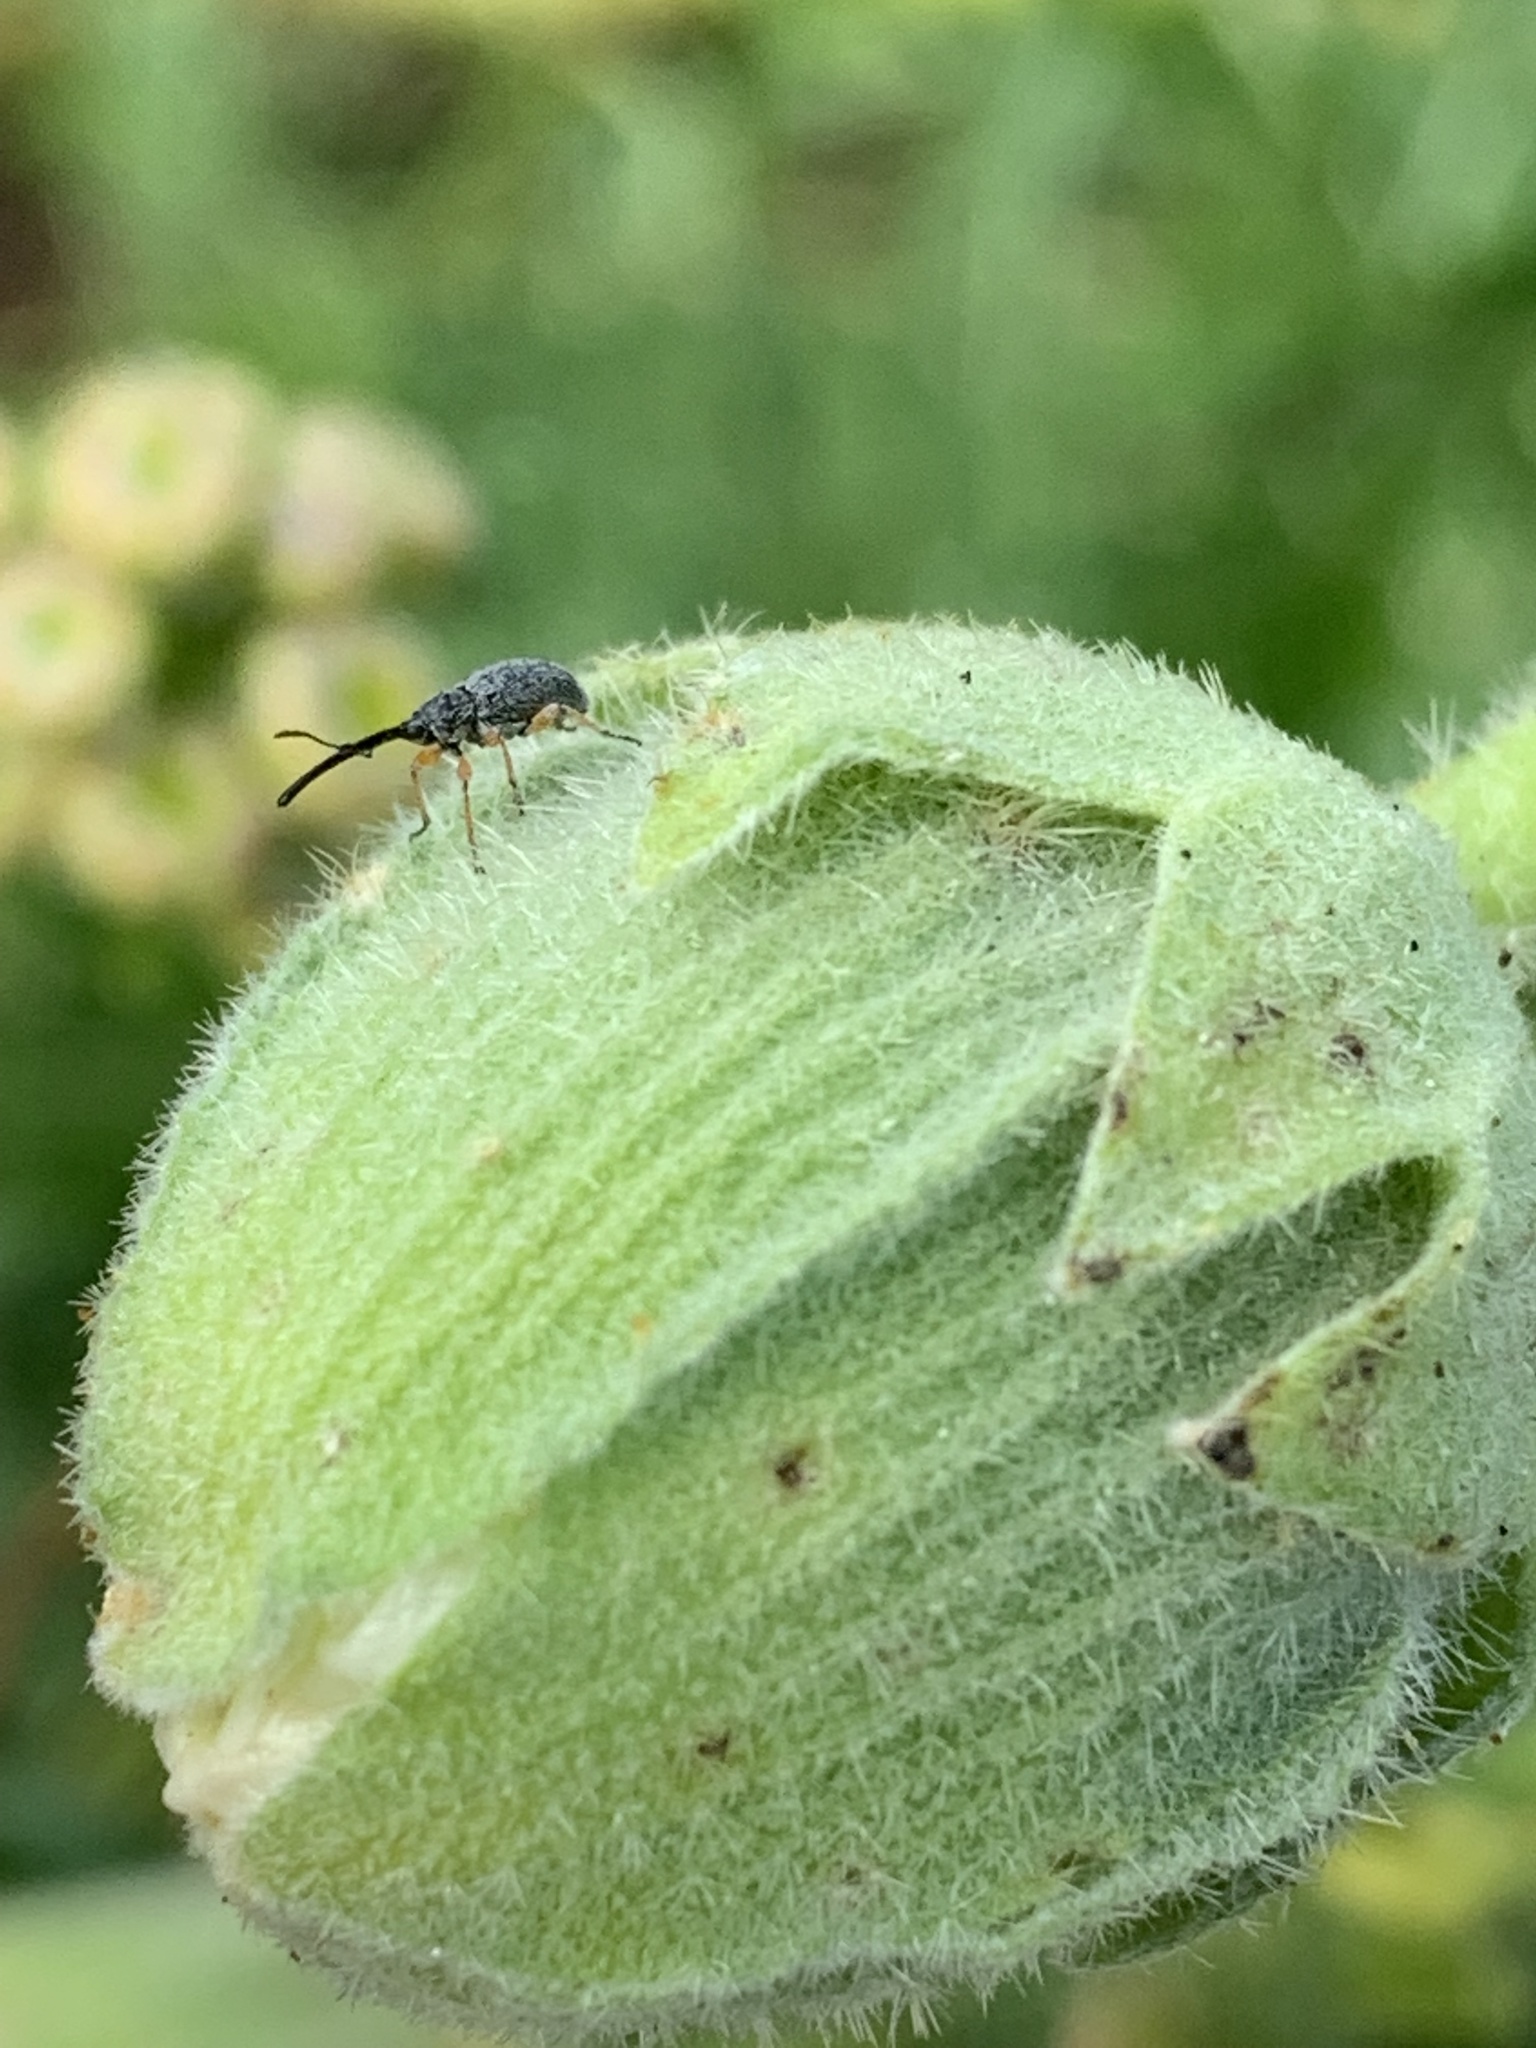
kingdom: Animalia
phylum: Arthropoda
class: Insecta
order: Coleoptera
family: Brentidae
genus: Rhopalapion
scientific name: Rhopalapion longirostre
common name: Hollyhock weevil
